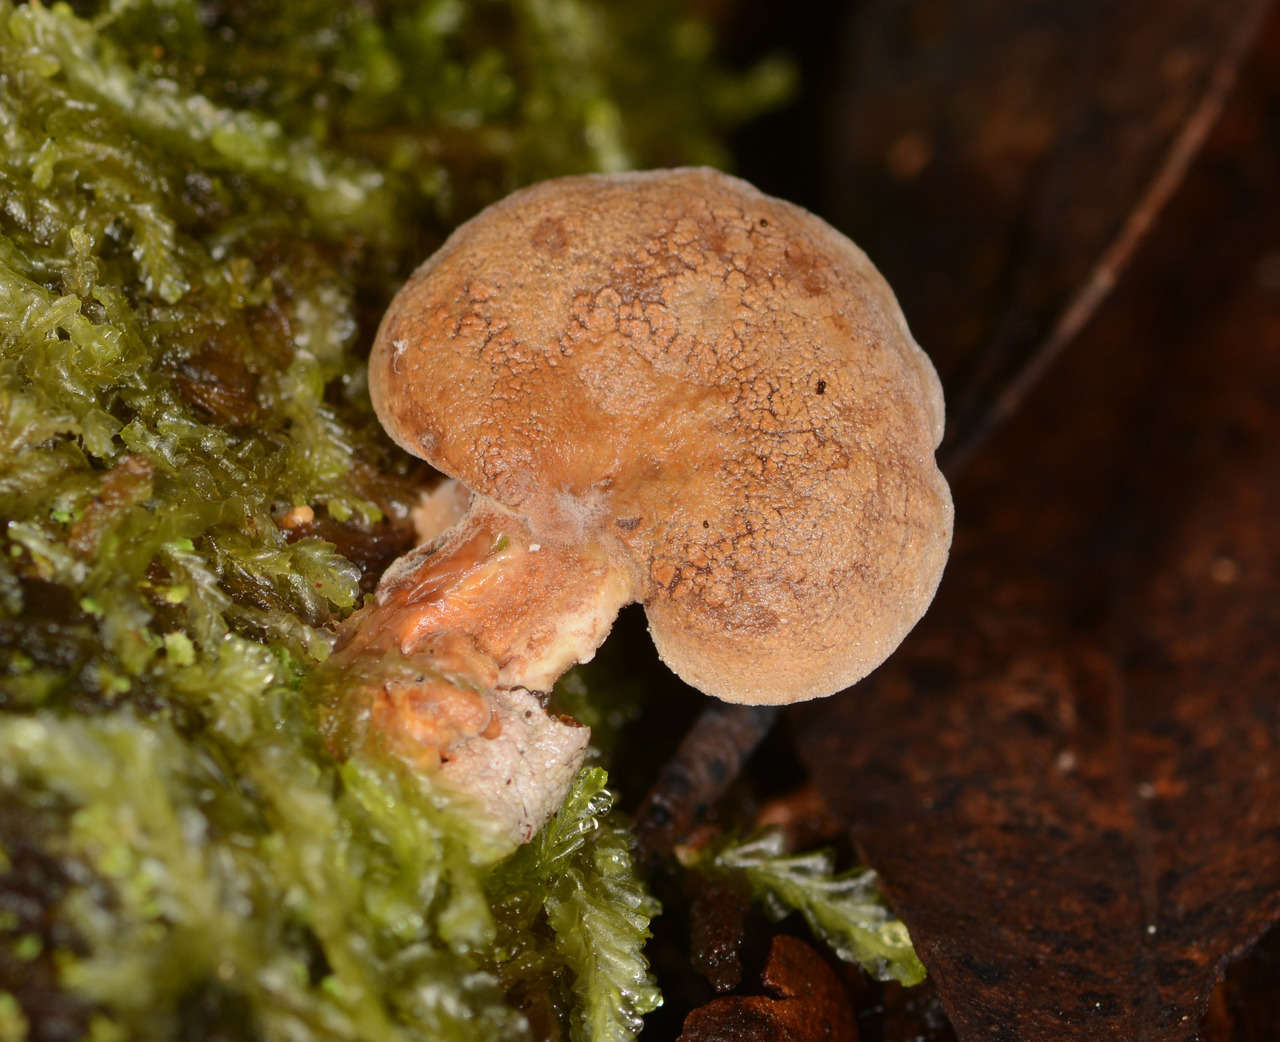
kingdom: Fungi
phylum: Basidiomycota
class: Agaricomycetes
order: Agaricales
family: Mycenaceae
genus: Panellus
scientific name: Panellus stipticus
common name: Bitter oysterling
